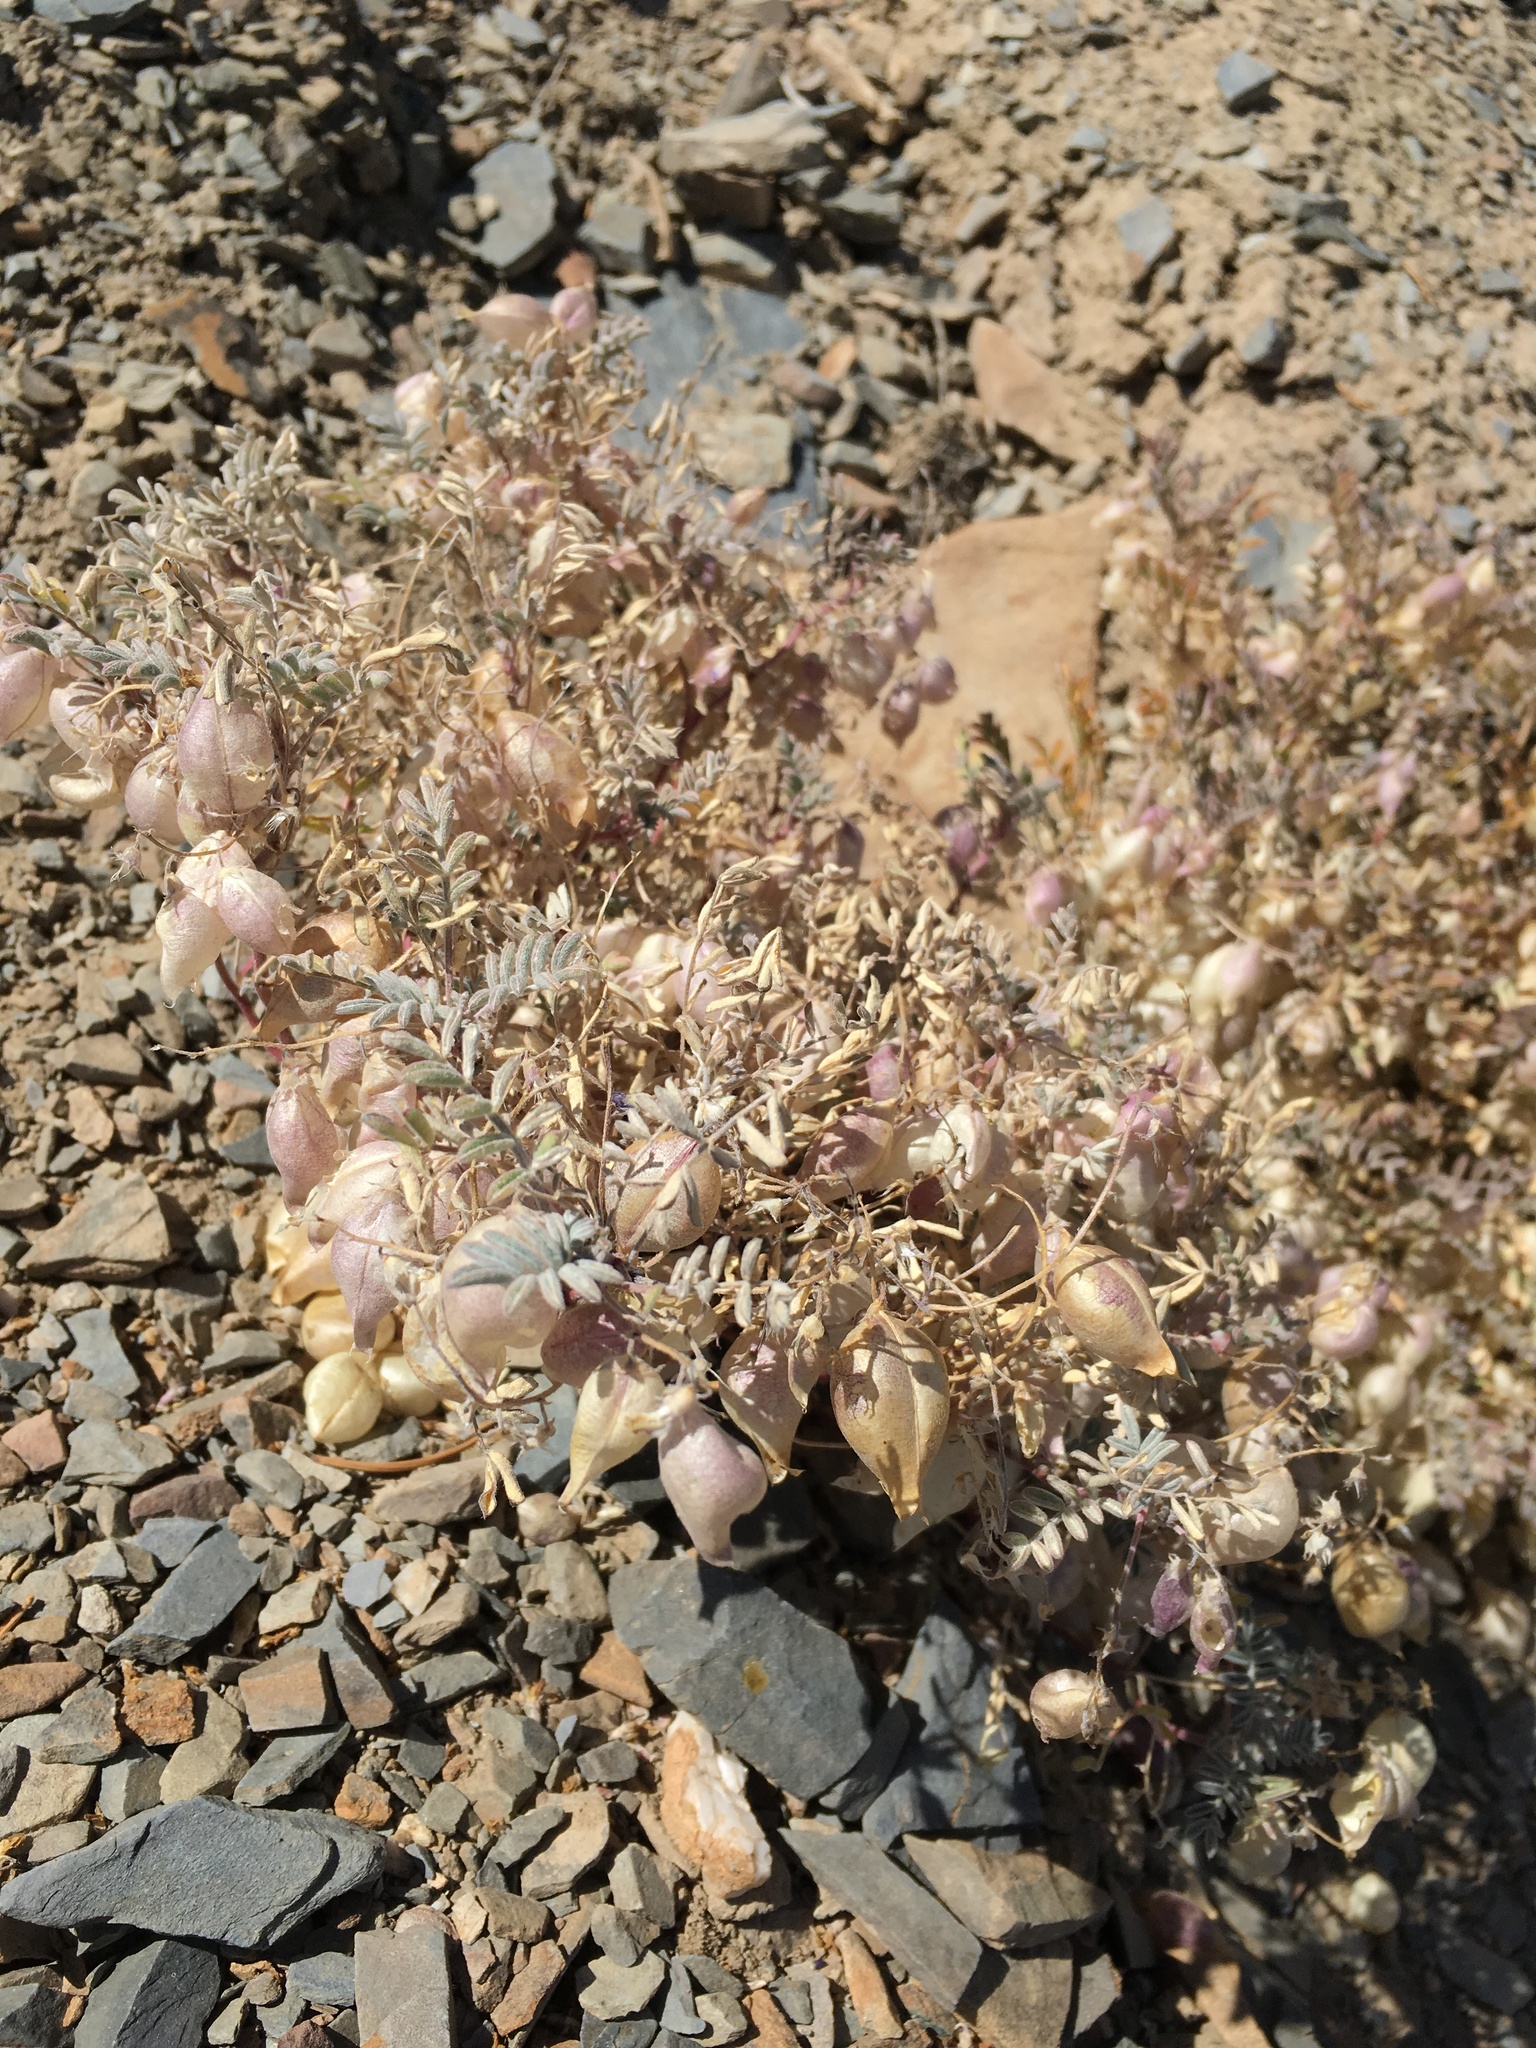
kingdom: Plantae
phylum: Tracheophyta
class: Magnoliopsida
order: Fabales
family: Fabaceae
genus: Astragalus
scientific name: Astragalus gilmanii
